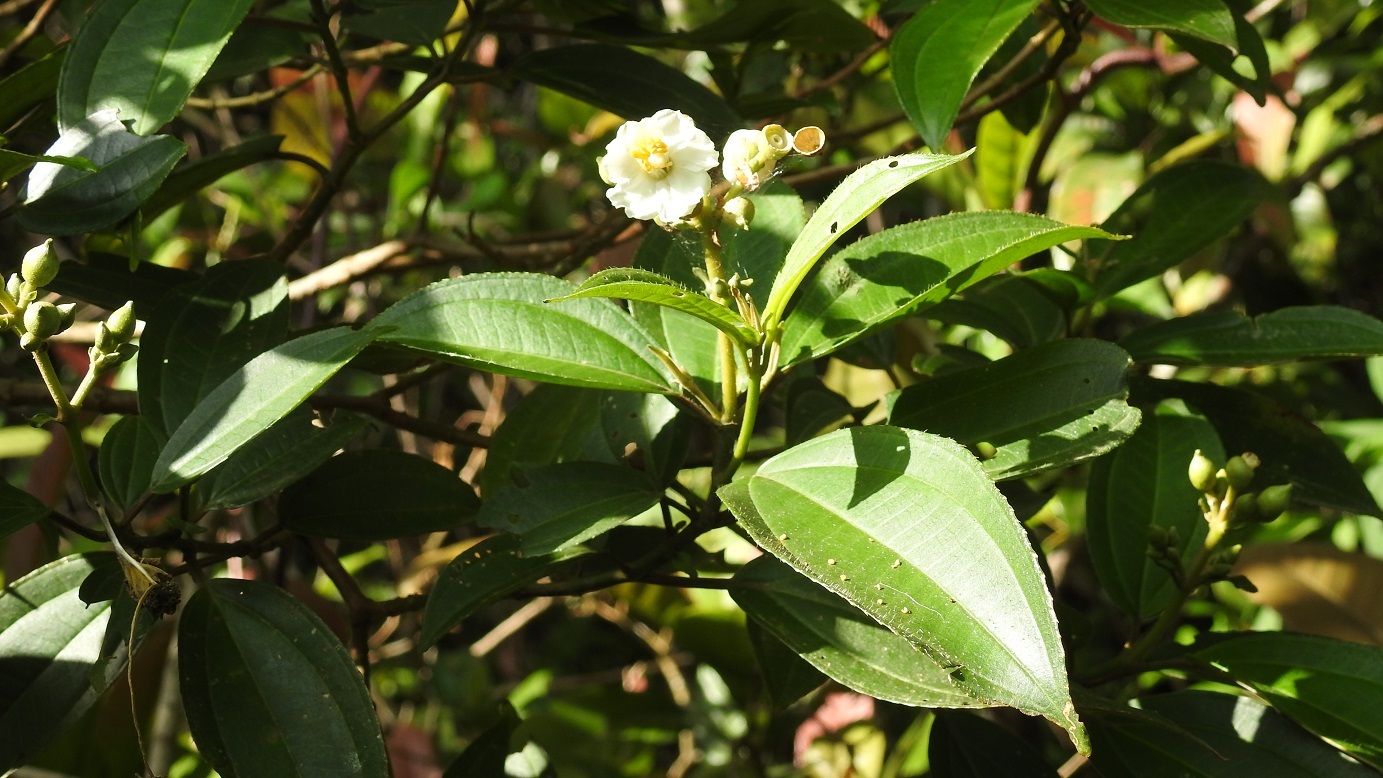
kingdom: Plantae
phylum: Tracheophyta
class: Magnoliopsida
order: Myrtales
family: Melastomataceae
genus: Miconia
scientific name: Miconia subhirsuta
